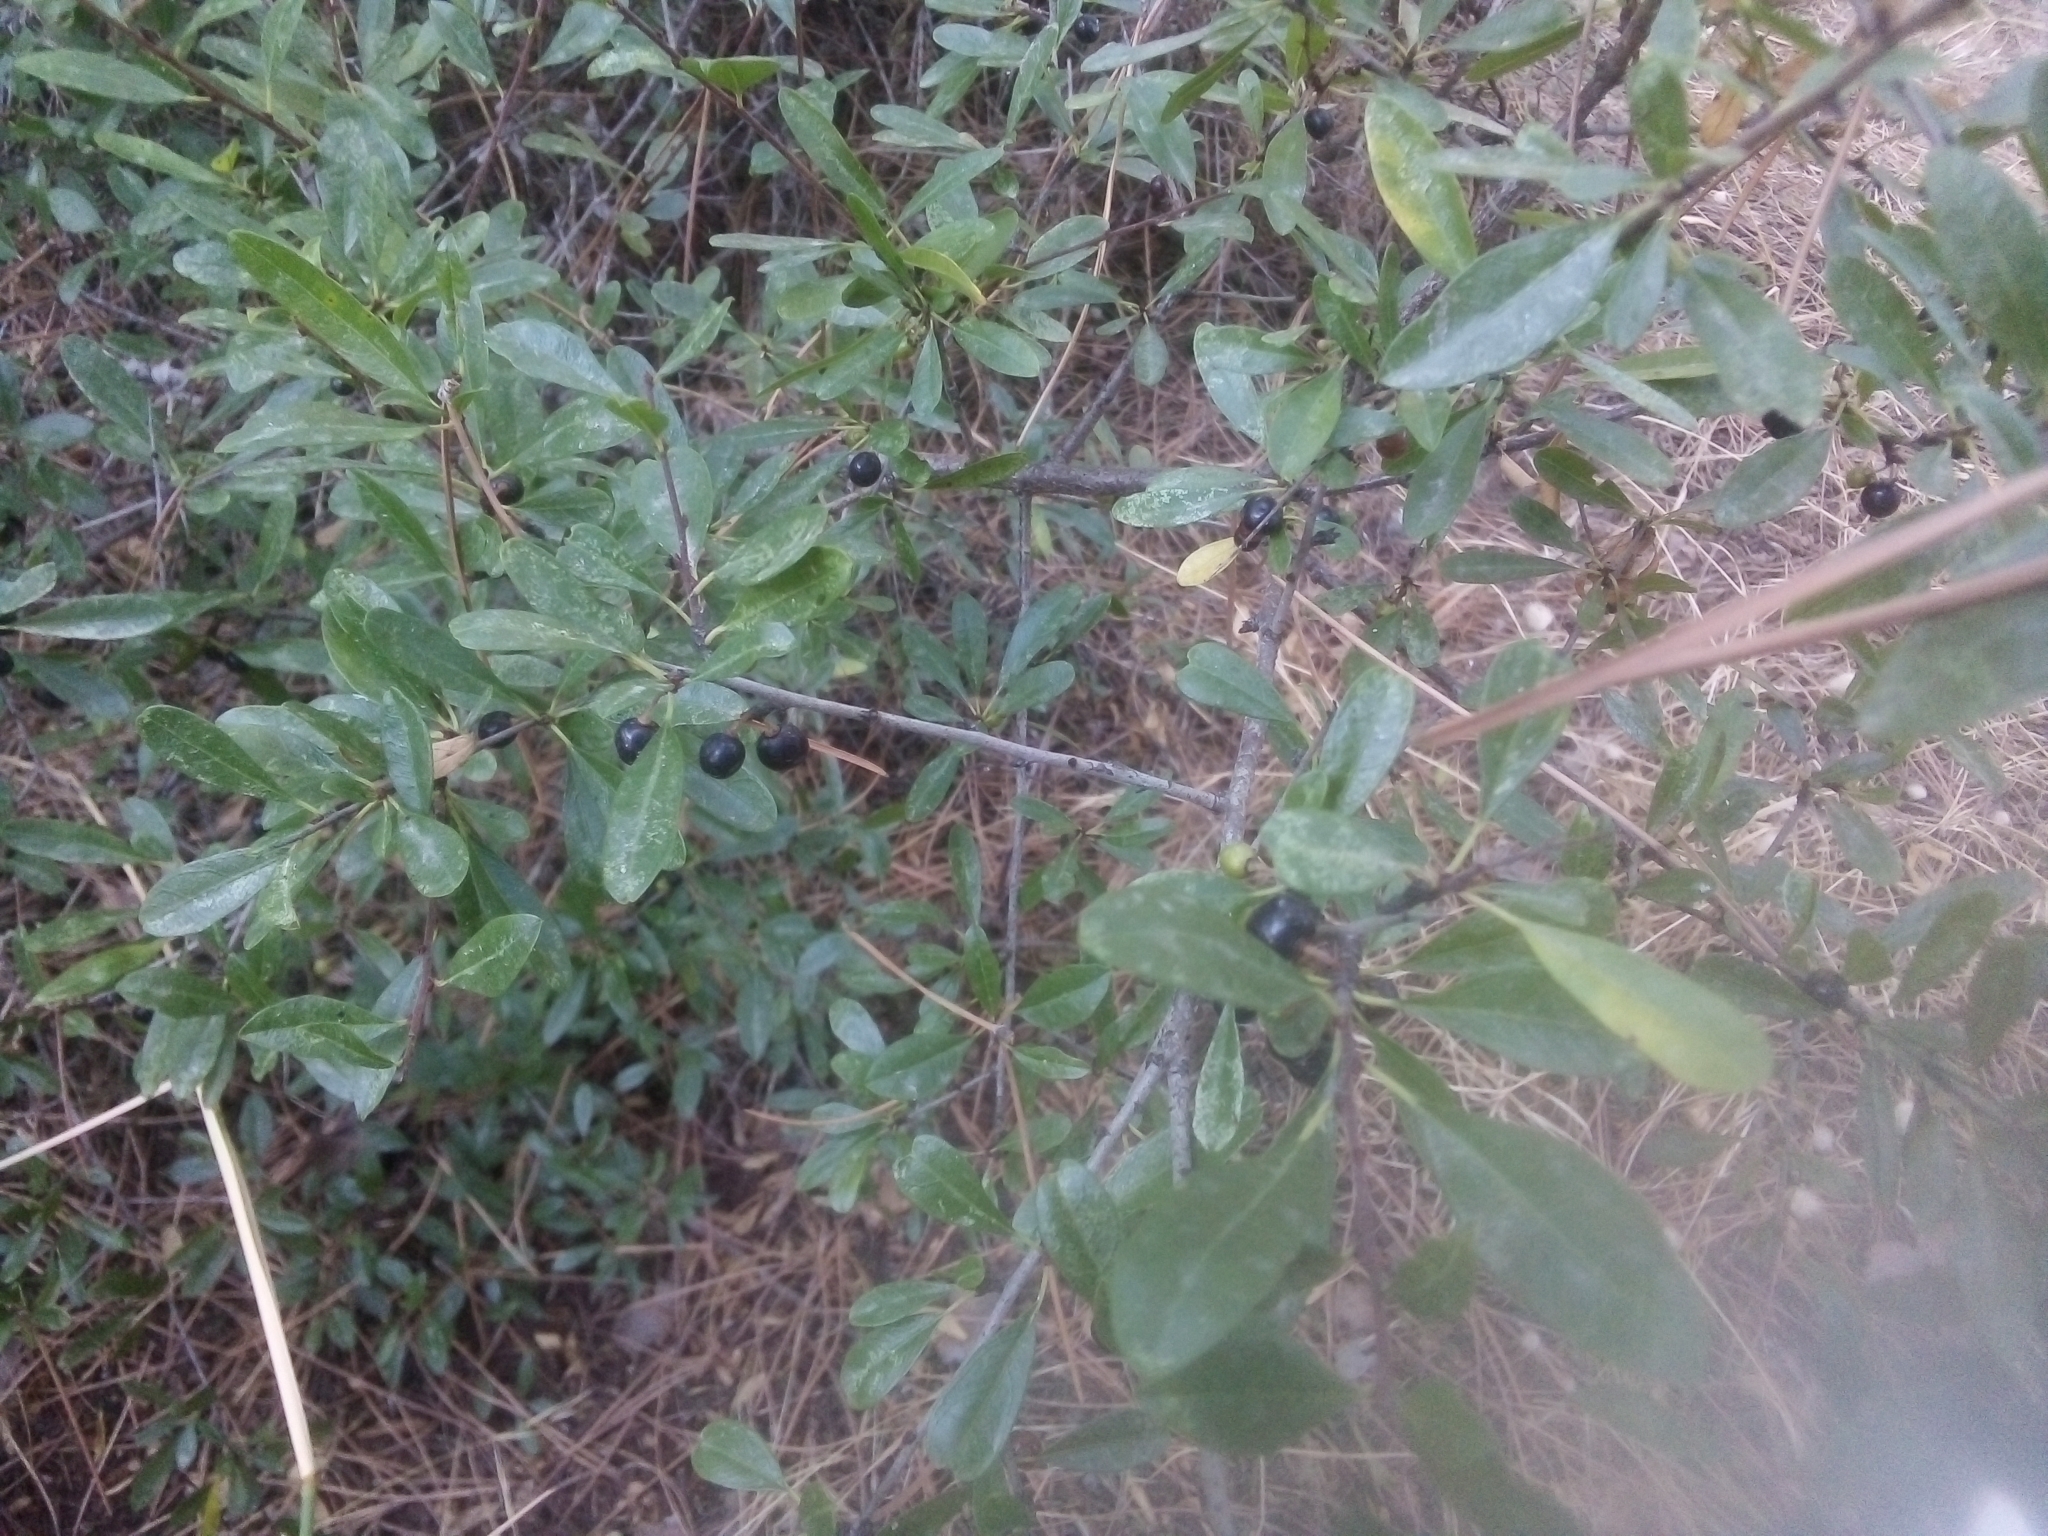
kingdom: Plantae
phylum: Tracheophyta
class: Magnoliopsida
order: Rosales
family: Rhamnaceae
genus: Rhamnus
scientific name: Rhamnus oleoides
